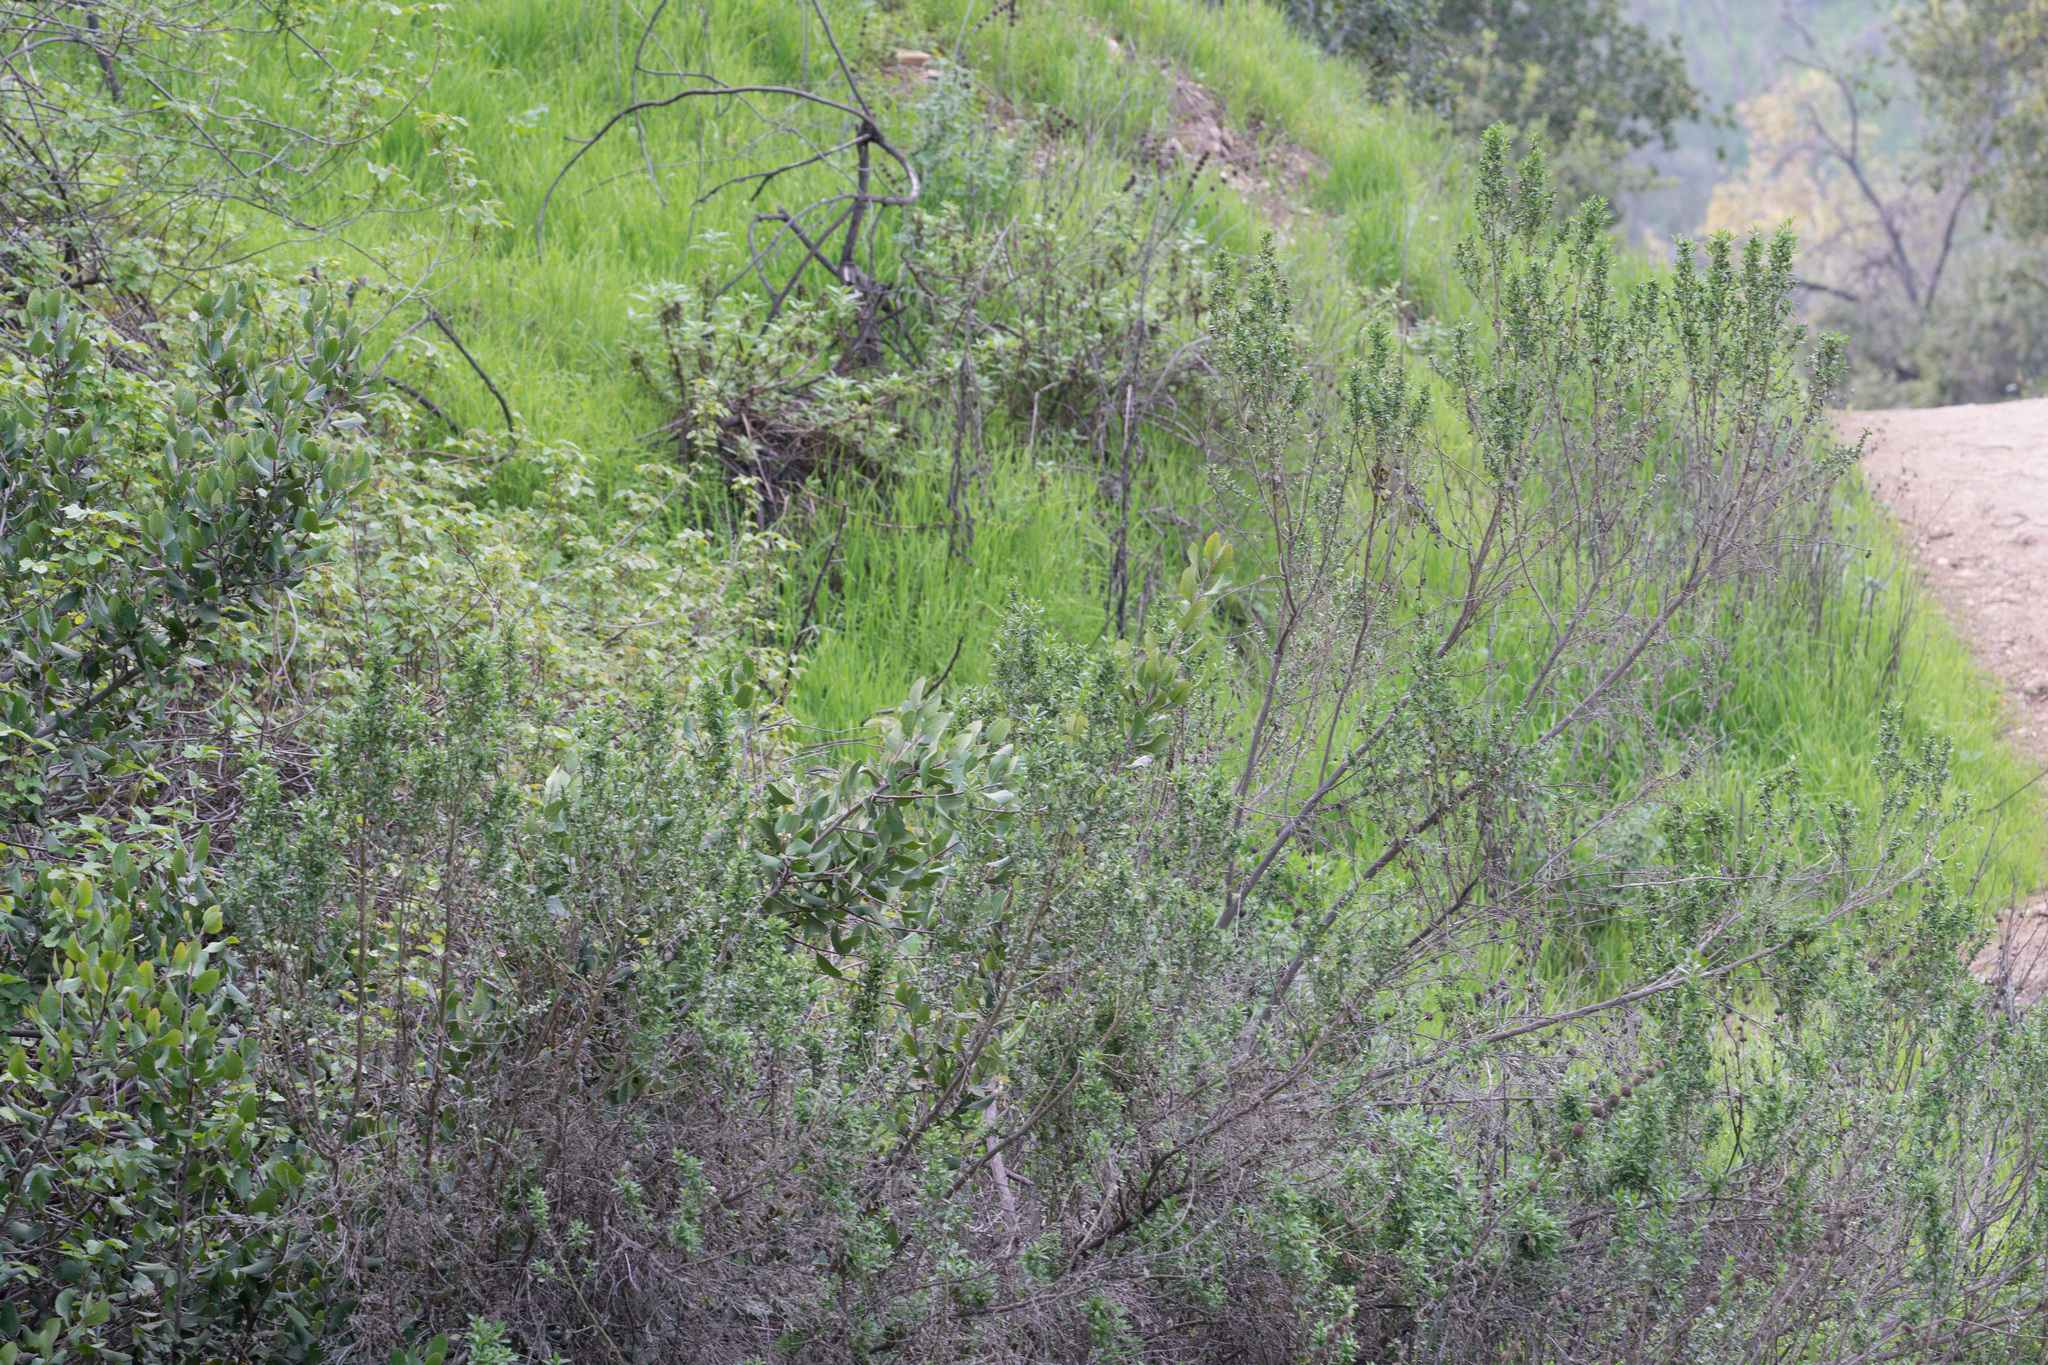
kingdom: Plantae
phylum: Tracheophyta
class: Magnoliopsida
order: Asterales
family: Asteraceae
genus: Baccharis
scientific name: Baccharis pilularis
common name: Coyotebrush
